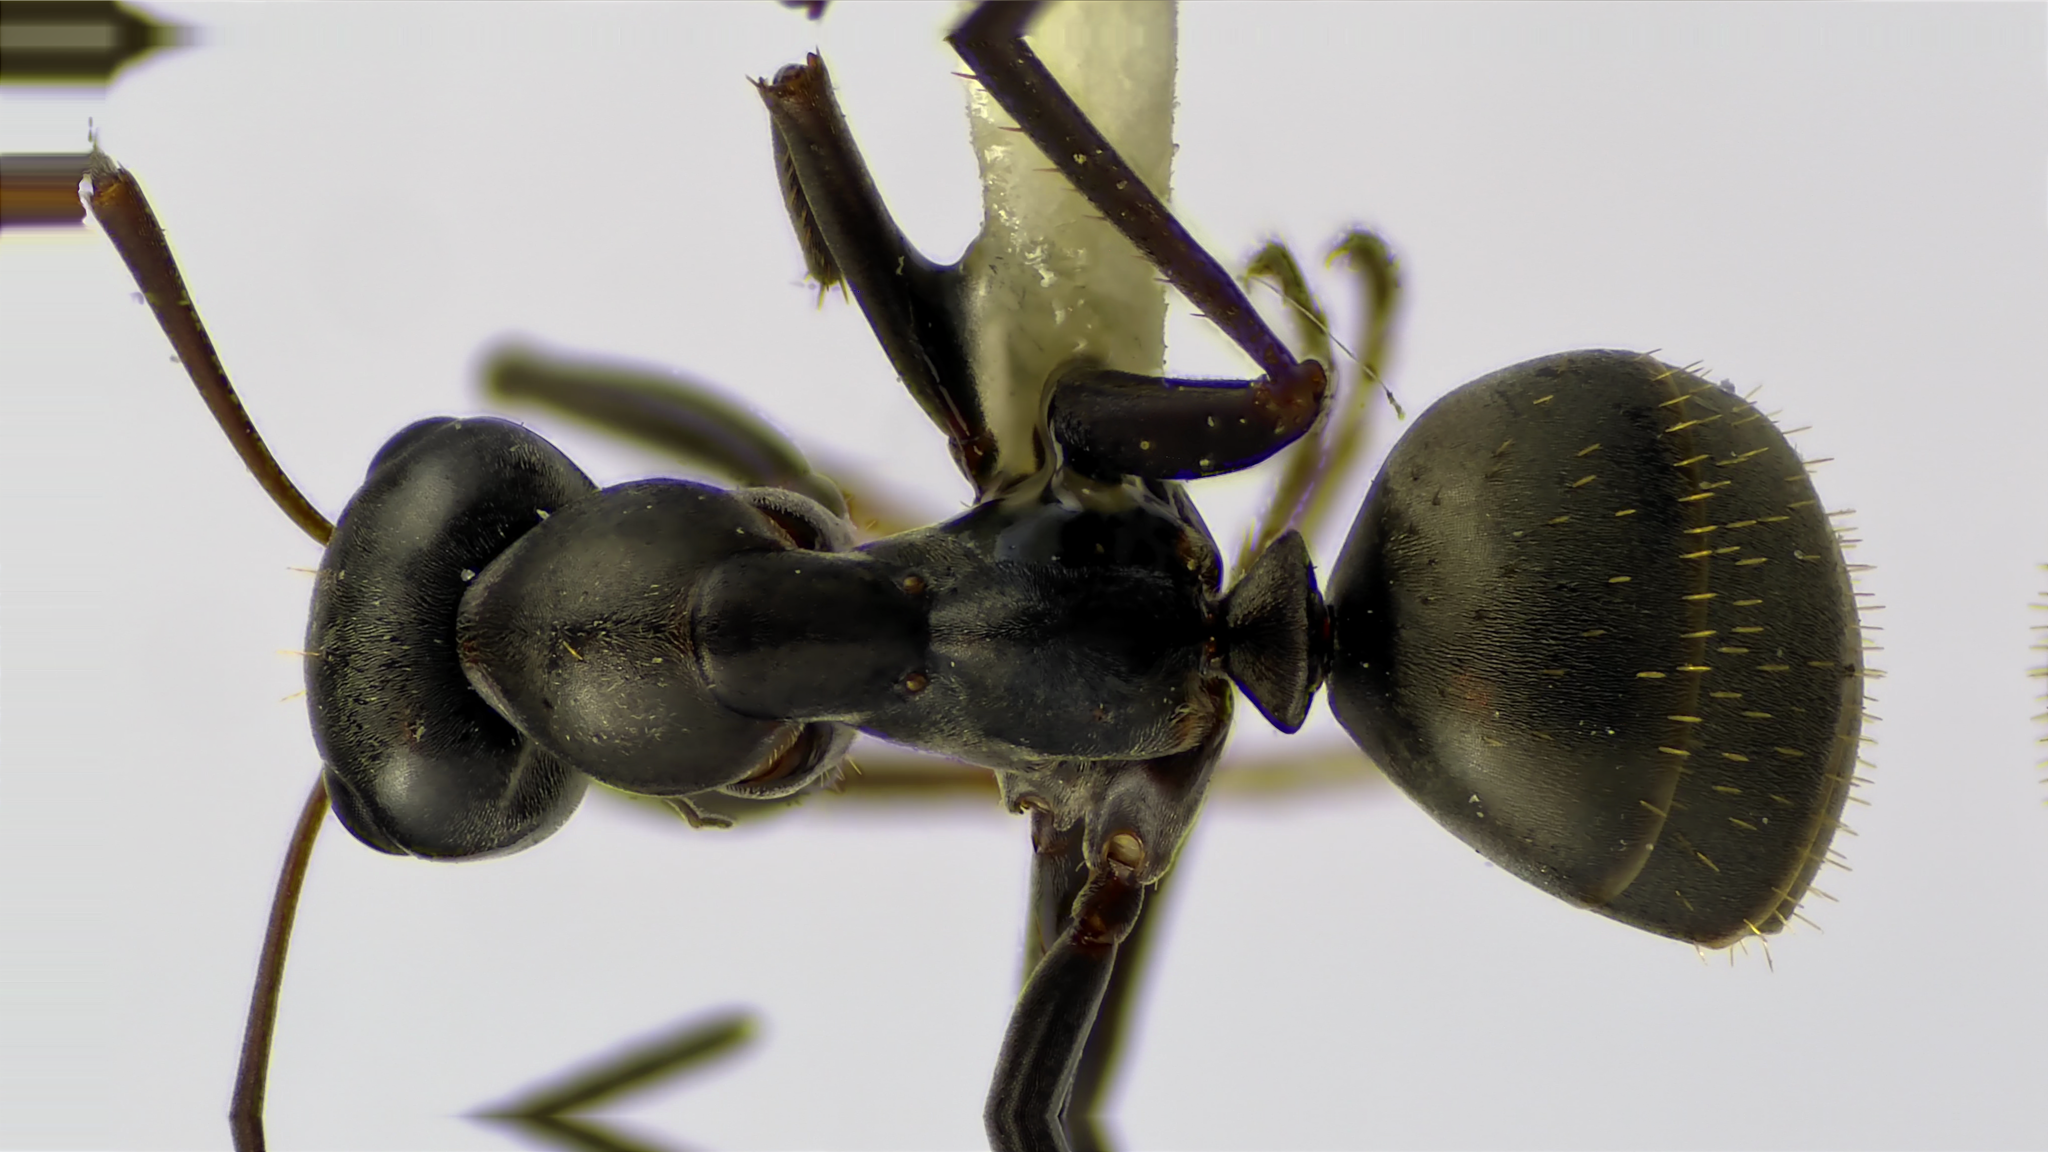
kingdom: Animalia
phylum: Arthropoda
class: Insecta
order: Hymenoptera
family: Formicidae
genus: Formica
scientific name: Formica subsericea
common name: Silky field ant
